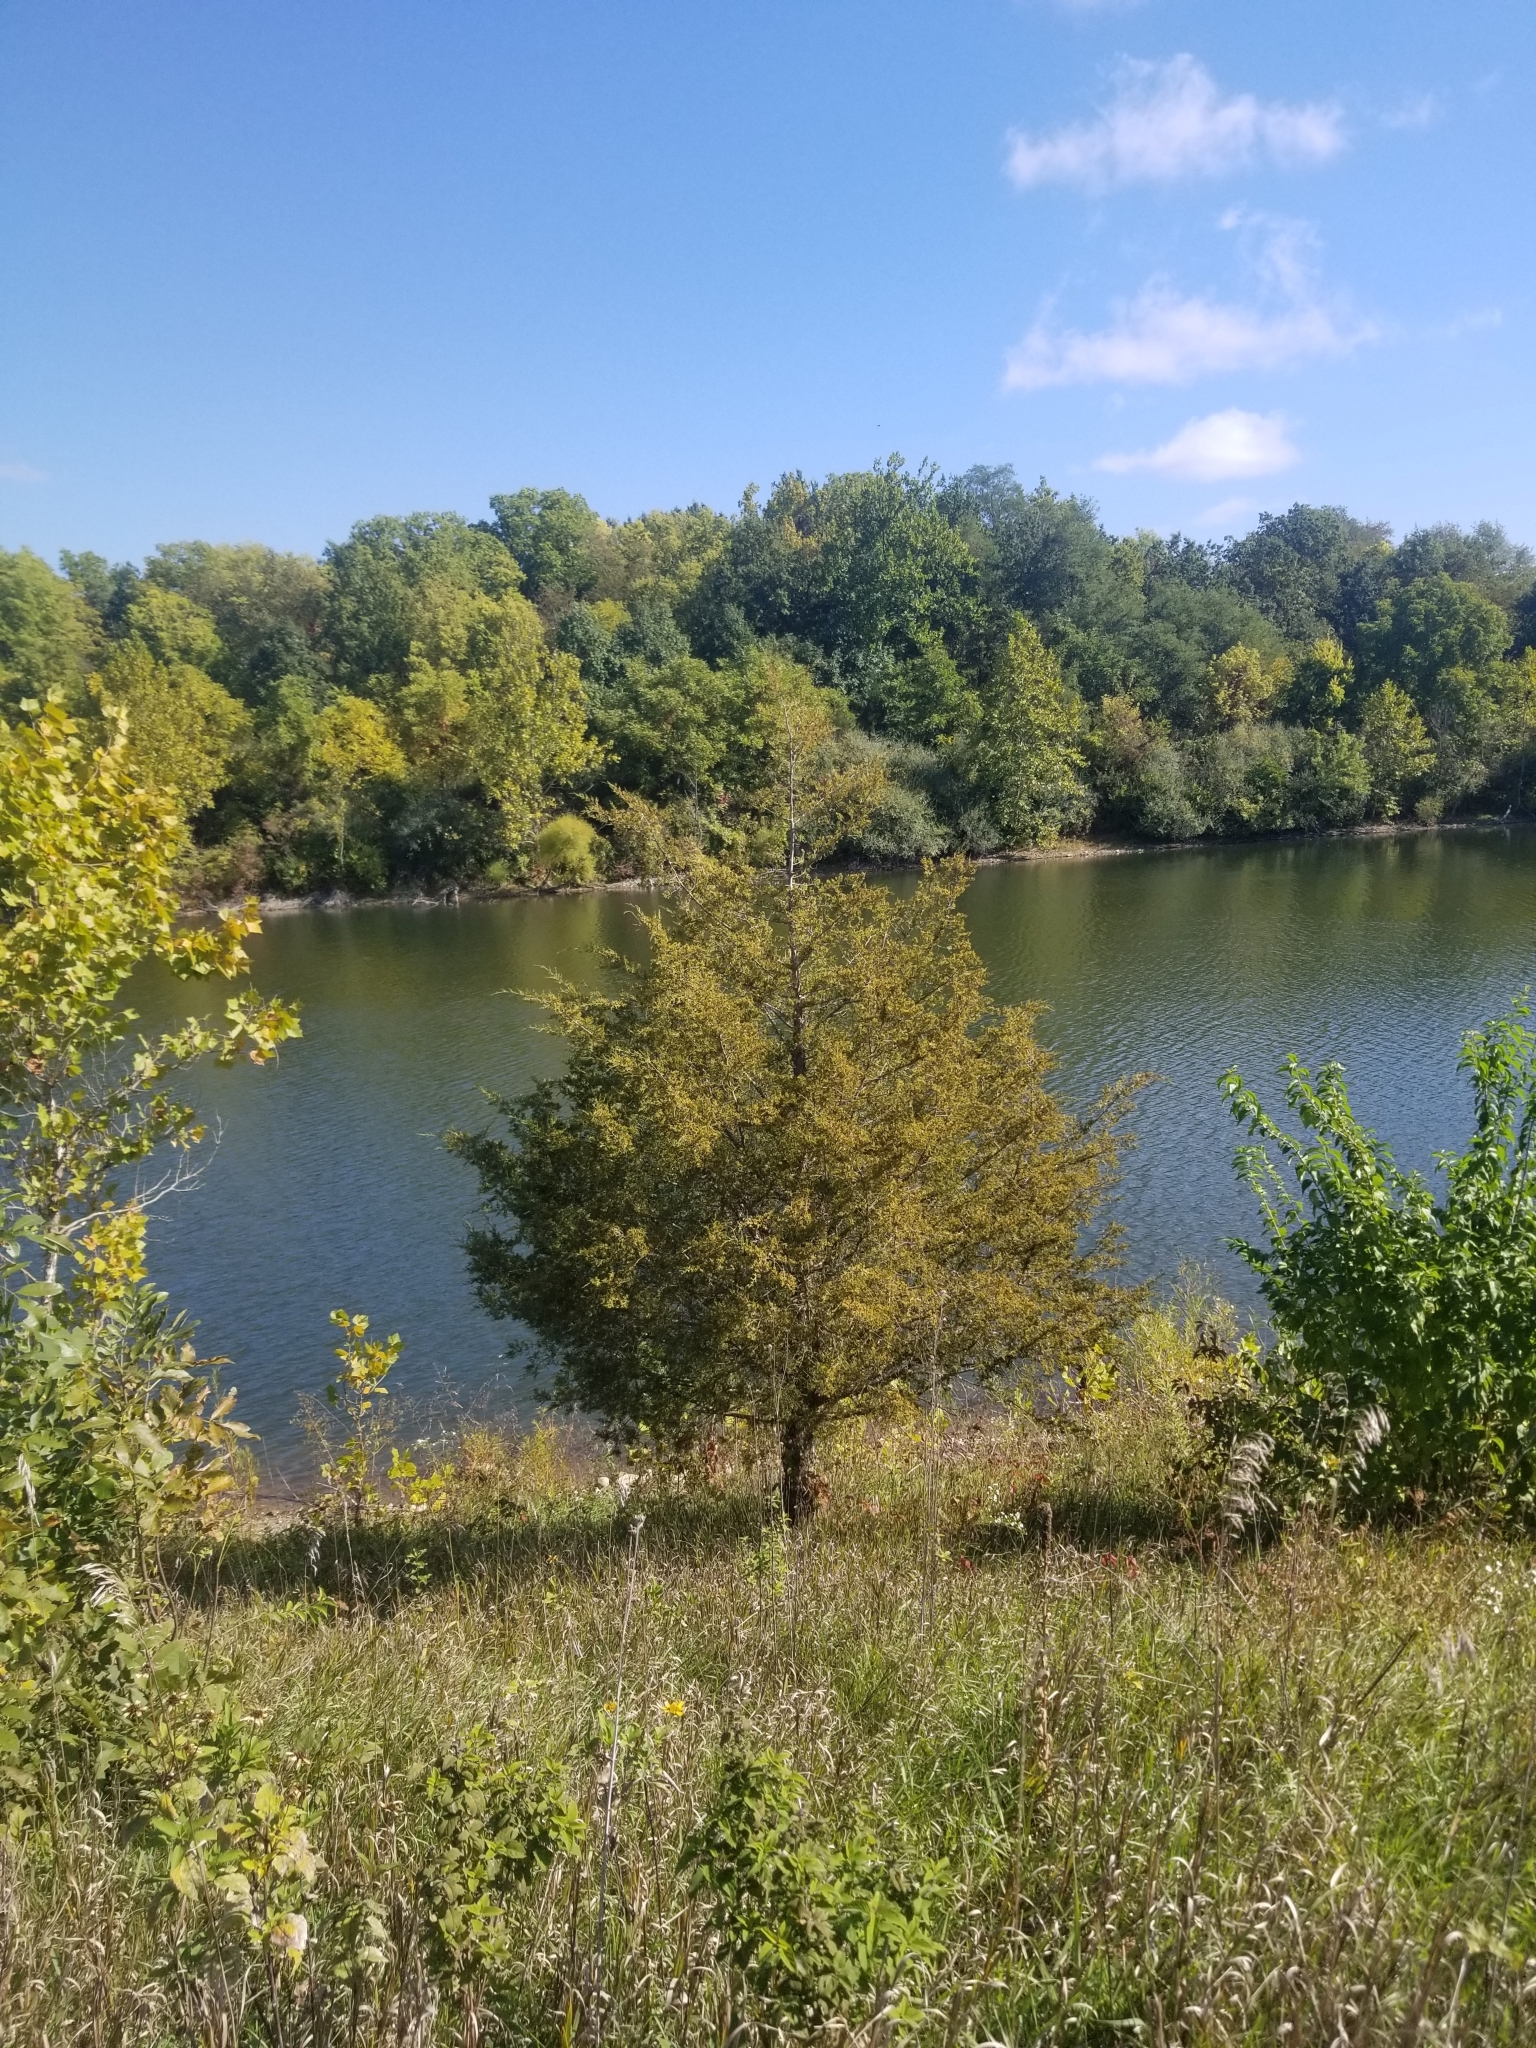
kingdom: Plantae
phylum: Tracheophyta
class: Pinopsida
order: Pinales
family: Cupressaceae
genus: Juniperus
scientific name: Juniperus virginiana
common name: Red juniper
